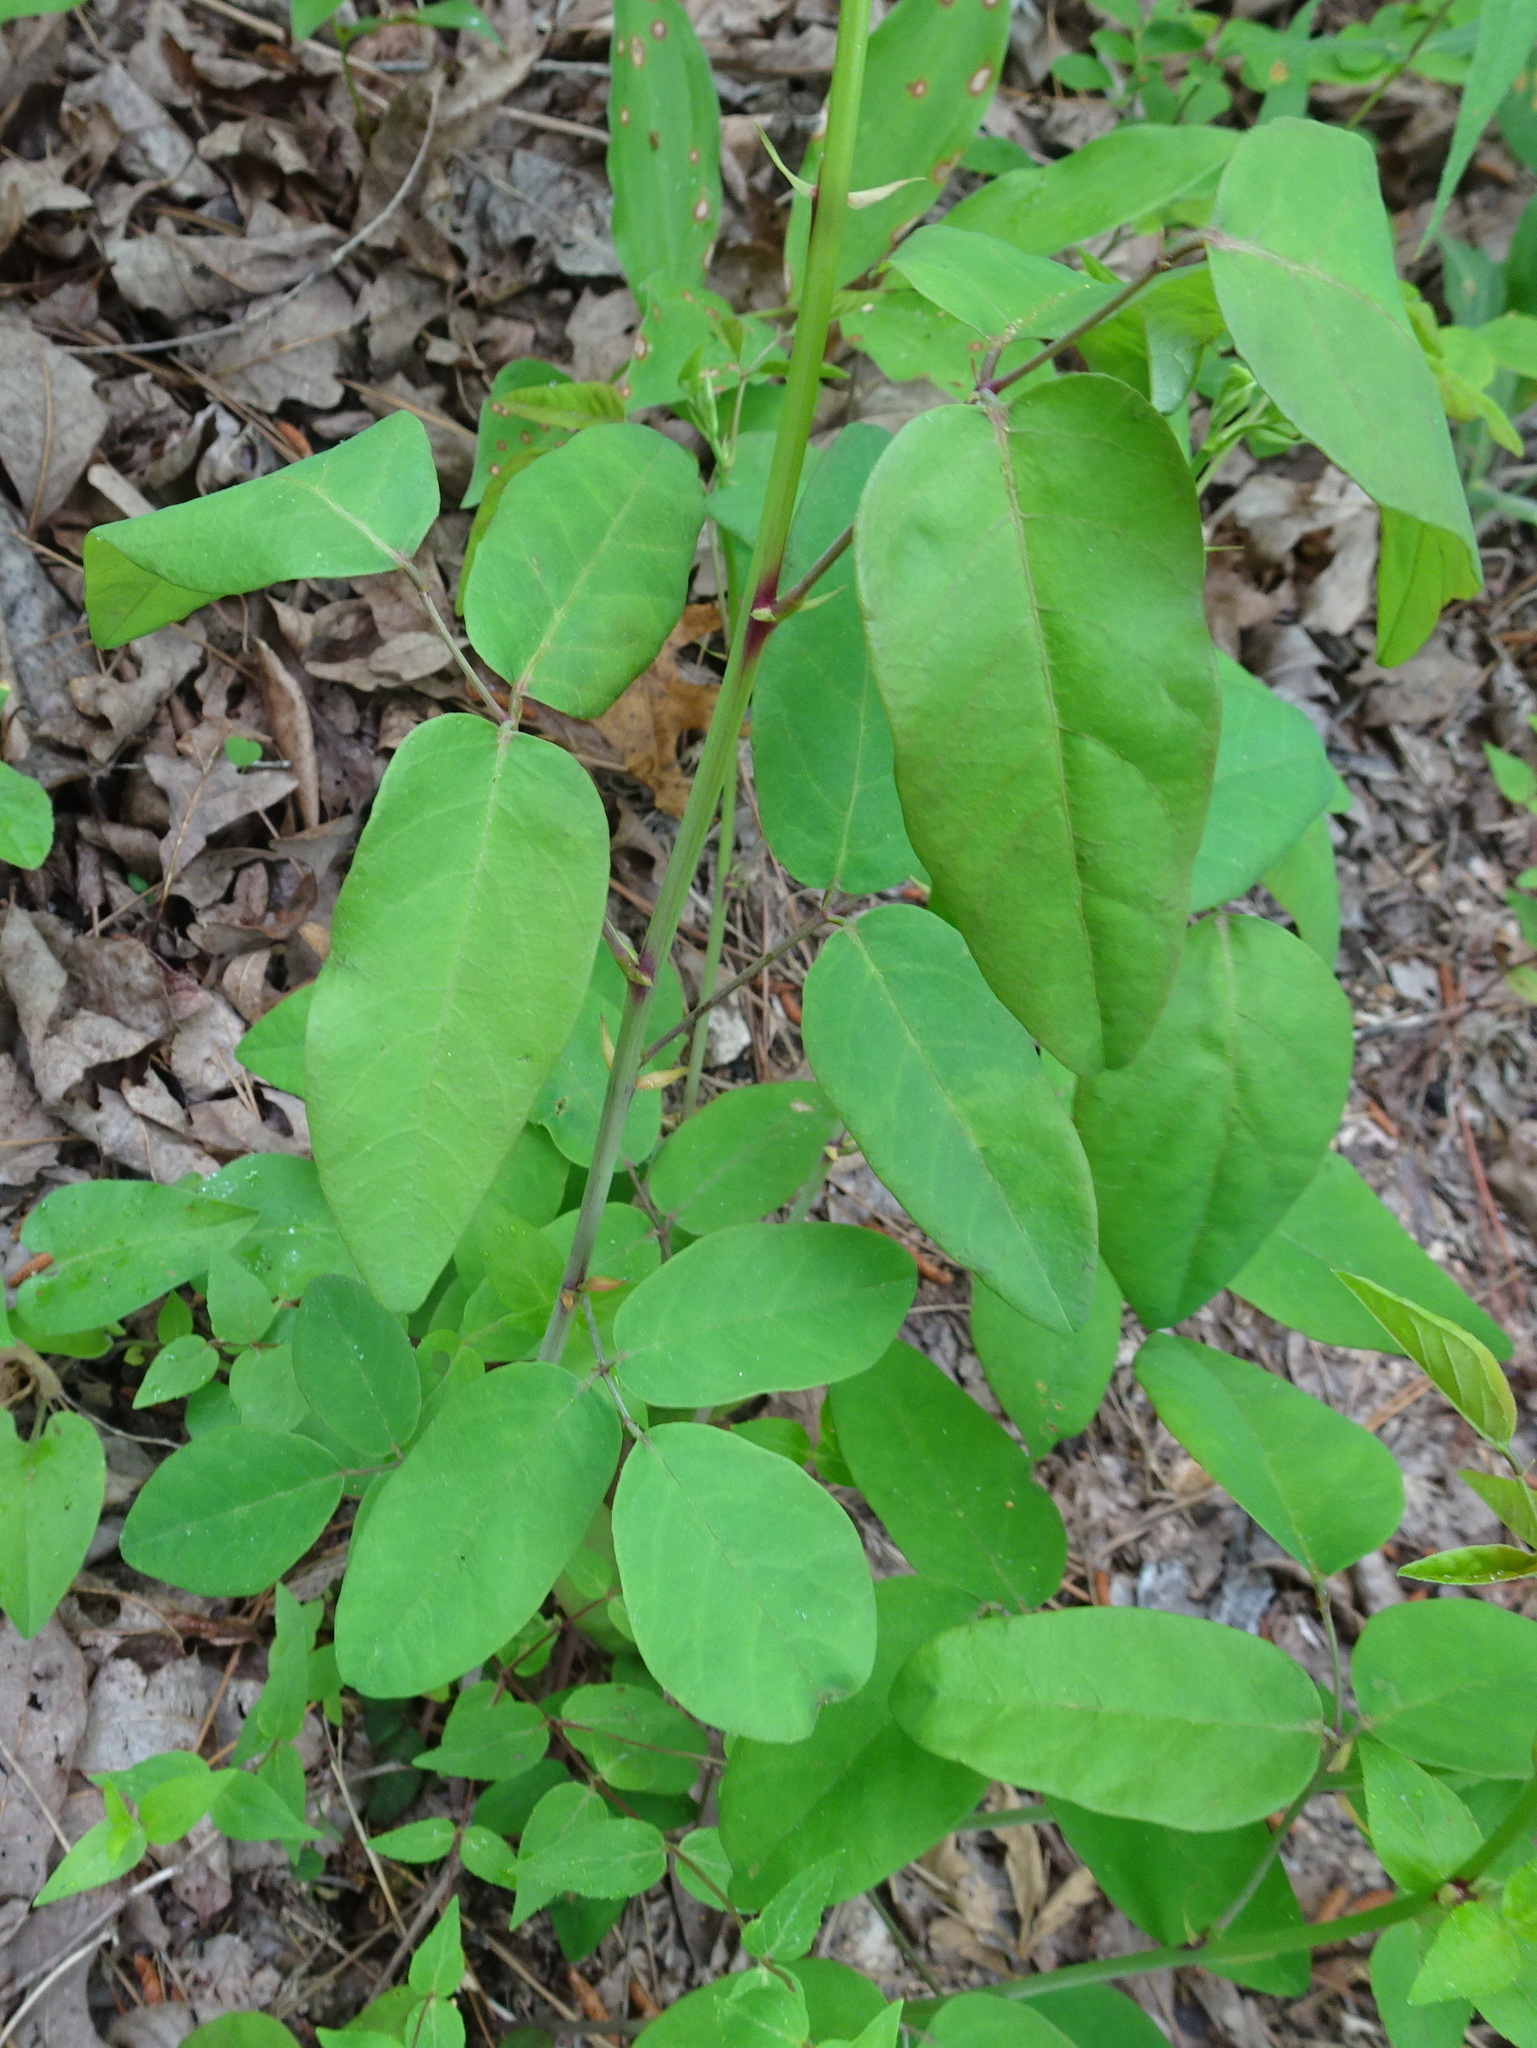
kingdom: Plantae
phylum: Tracheophyta
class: Magnoliopsida
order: Fabales
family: Fabaceae
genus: Desmodium
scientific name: Desmodium laevigatum
